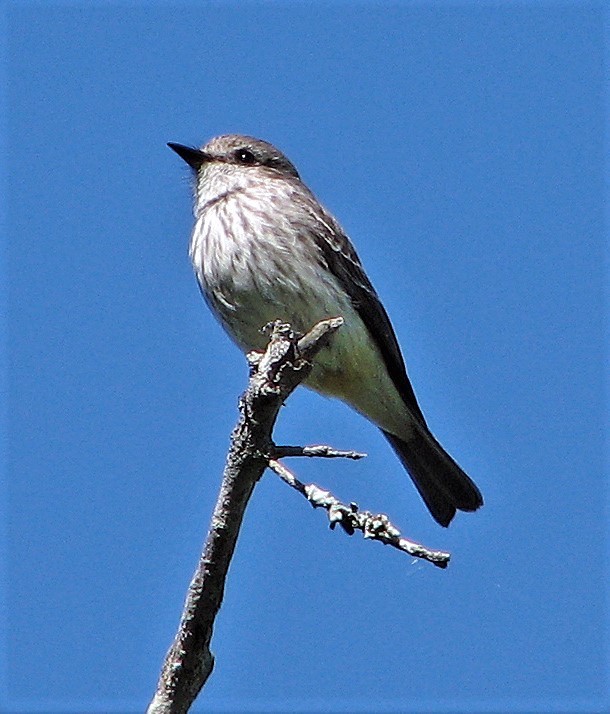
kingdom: Animalia
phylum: Chordata
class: Aves
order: Passeriformes
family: Tyrannidae
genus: Pyrocephalus
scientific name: Pyrocephalus rubinus
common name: Vermilion flycatcher
